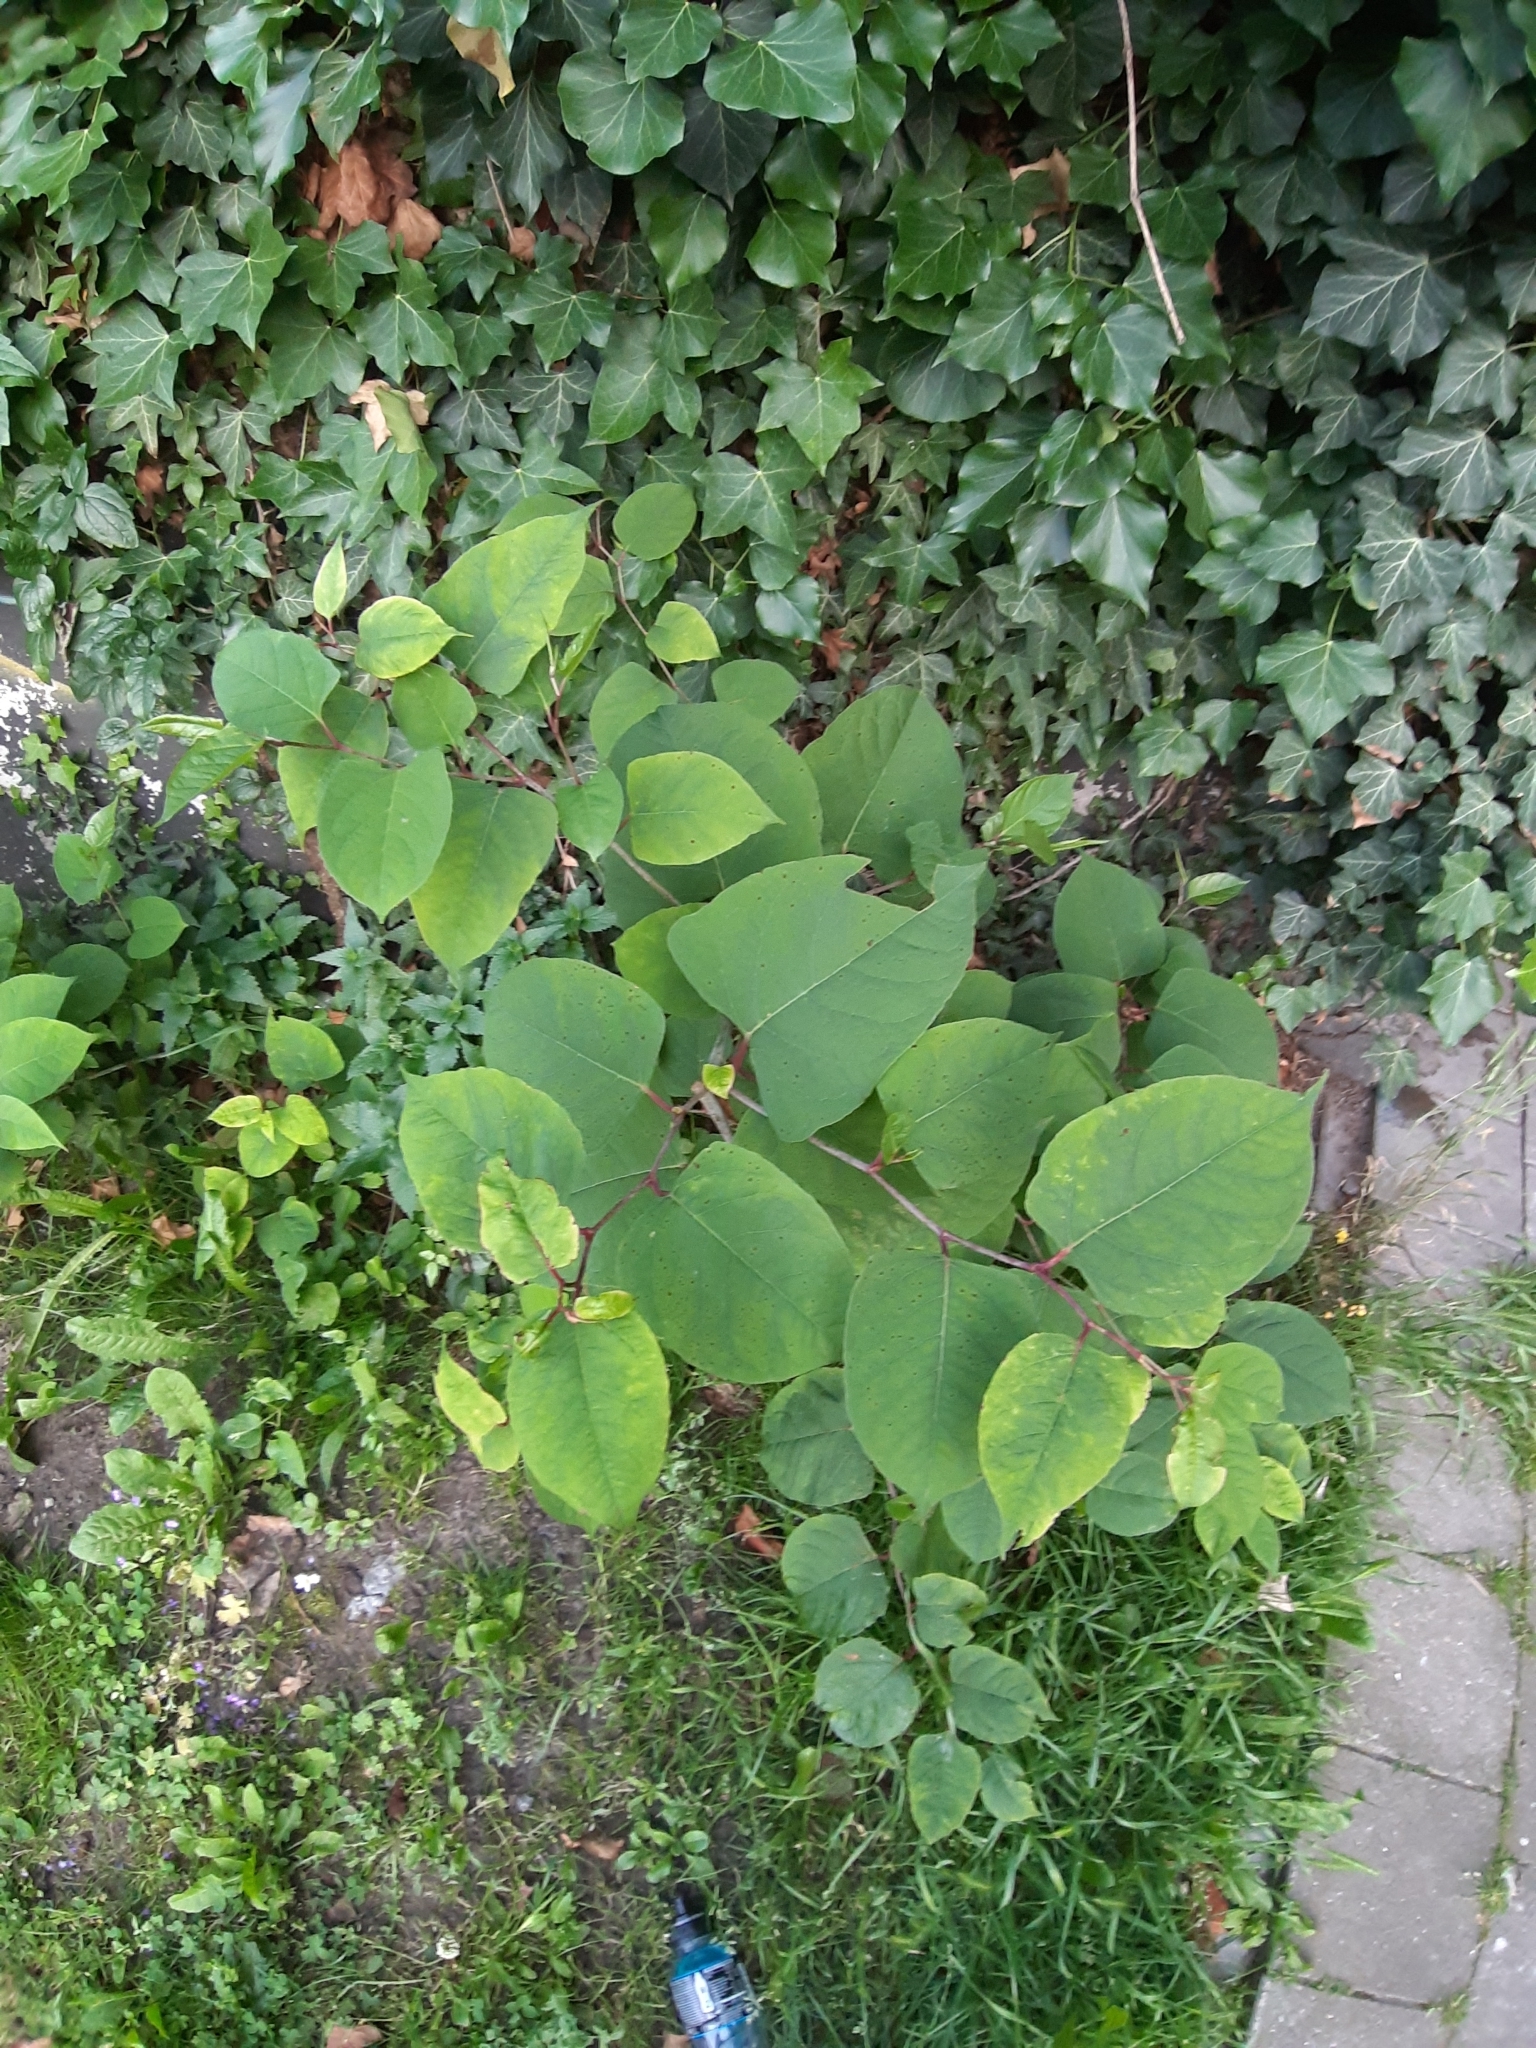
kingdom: Plantae
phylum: Tracheophyta
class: Magnoliopsida
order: Caryophyllales
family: Polygonaceae
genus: Reynoutria
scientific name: Reynoutria japonica
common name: Japanese knotweed
